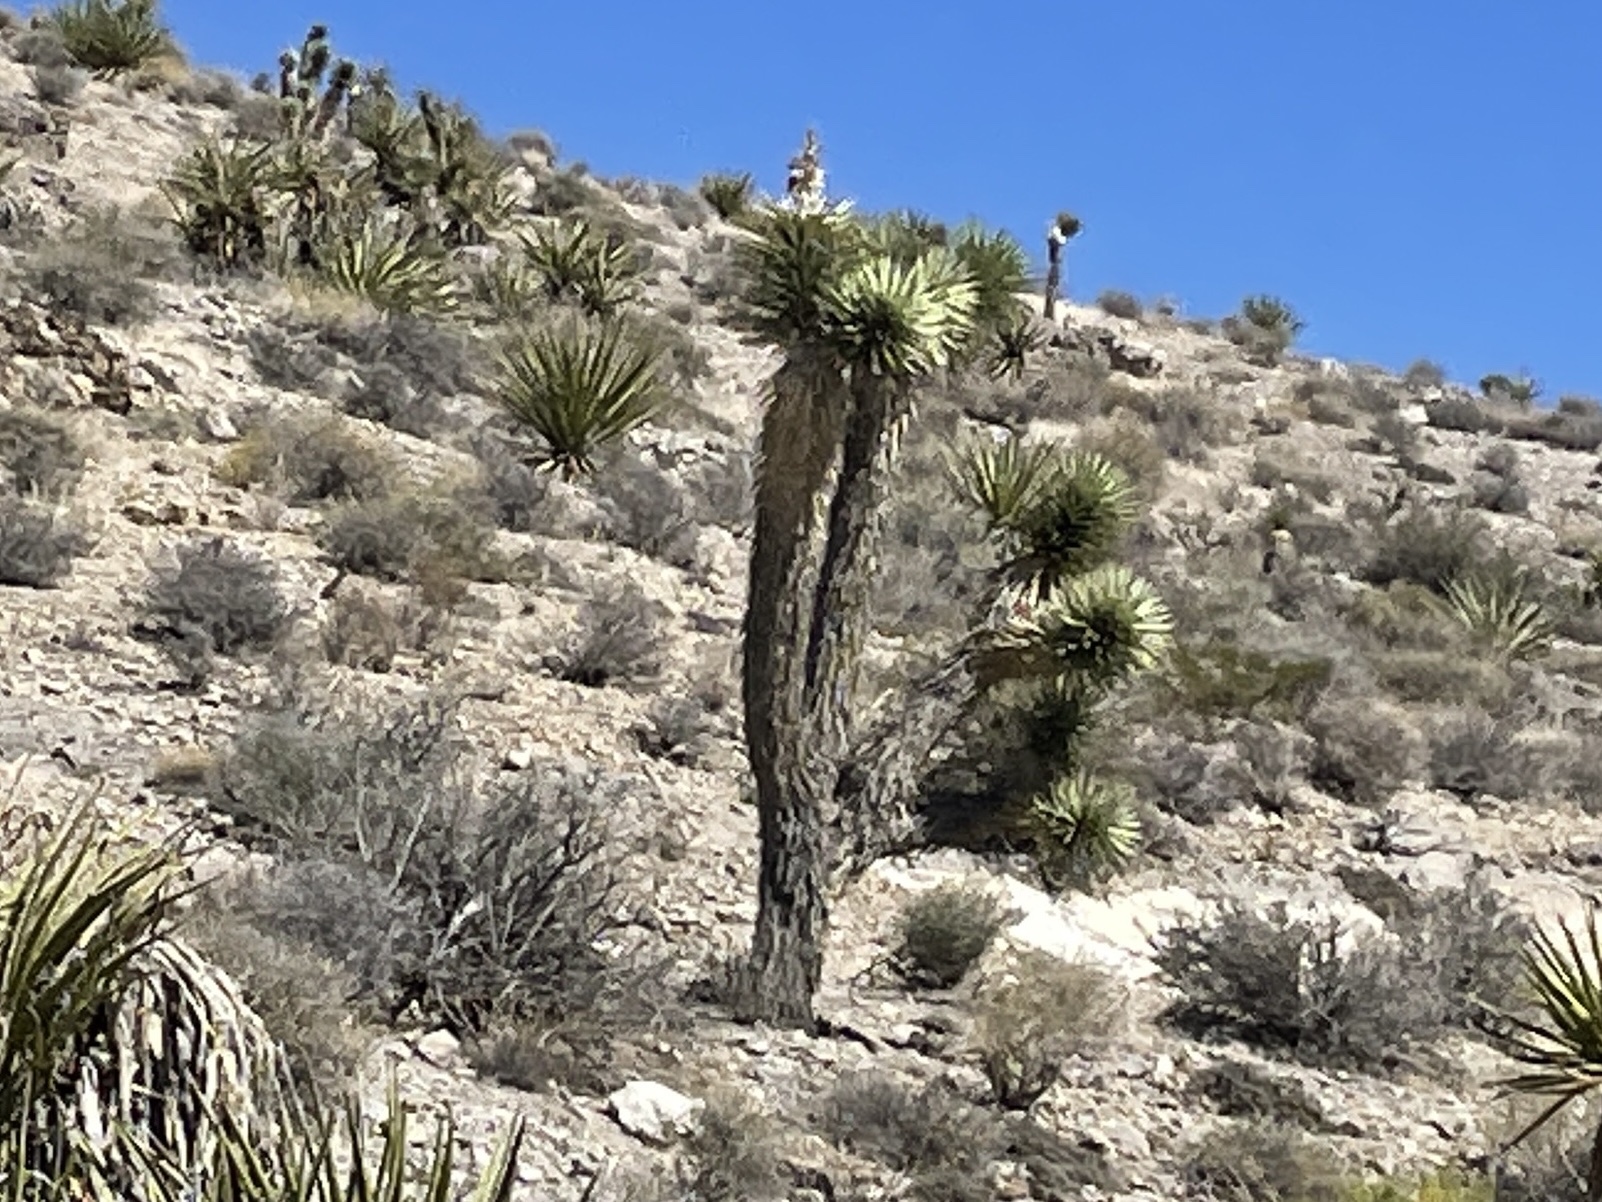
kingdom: Plantae
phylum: Tracheophyta
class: Liliopsida
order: Asparagales
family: Asparagaceae
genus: Yucca
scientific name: Yucca brevifolia
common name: Joshua tree
